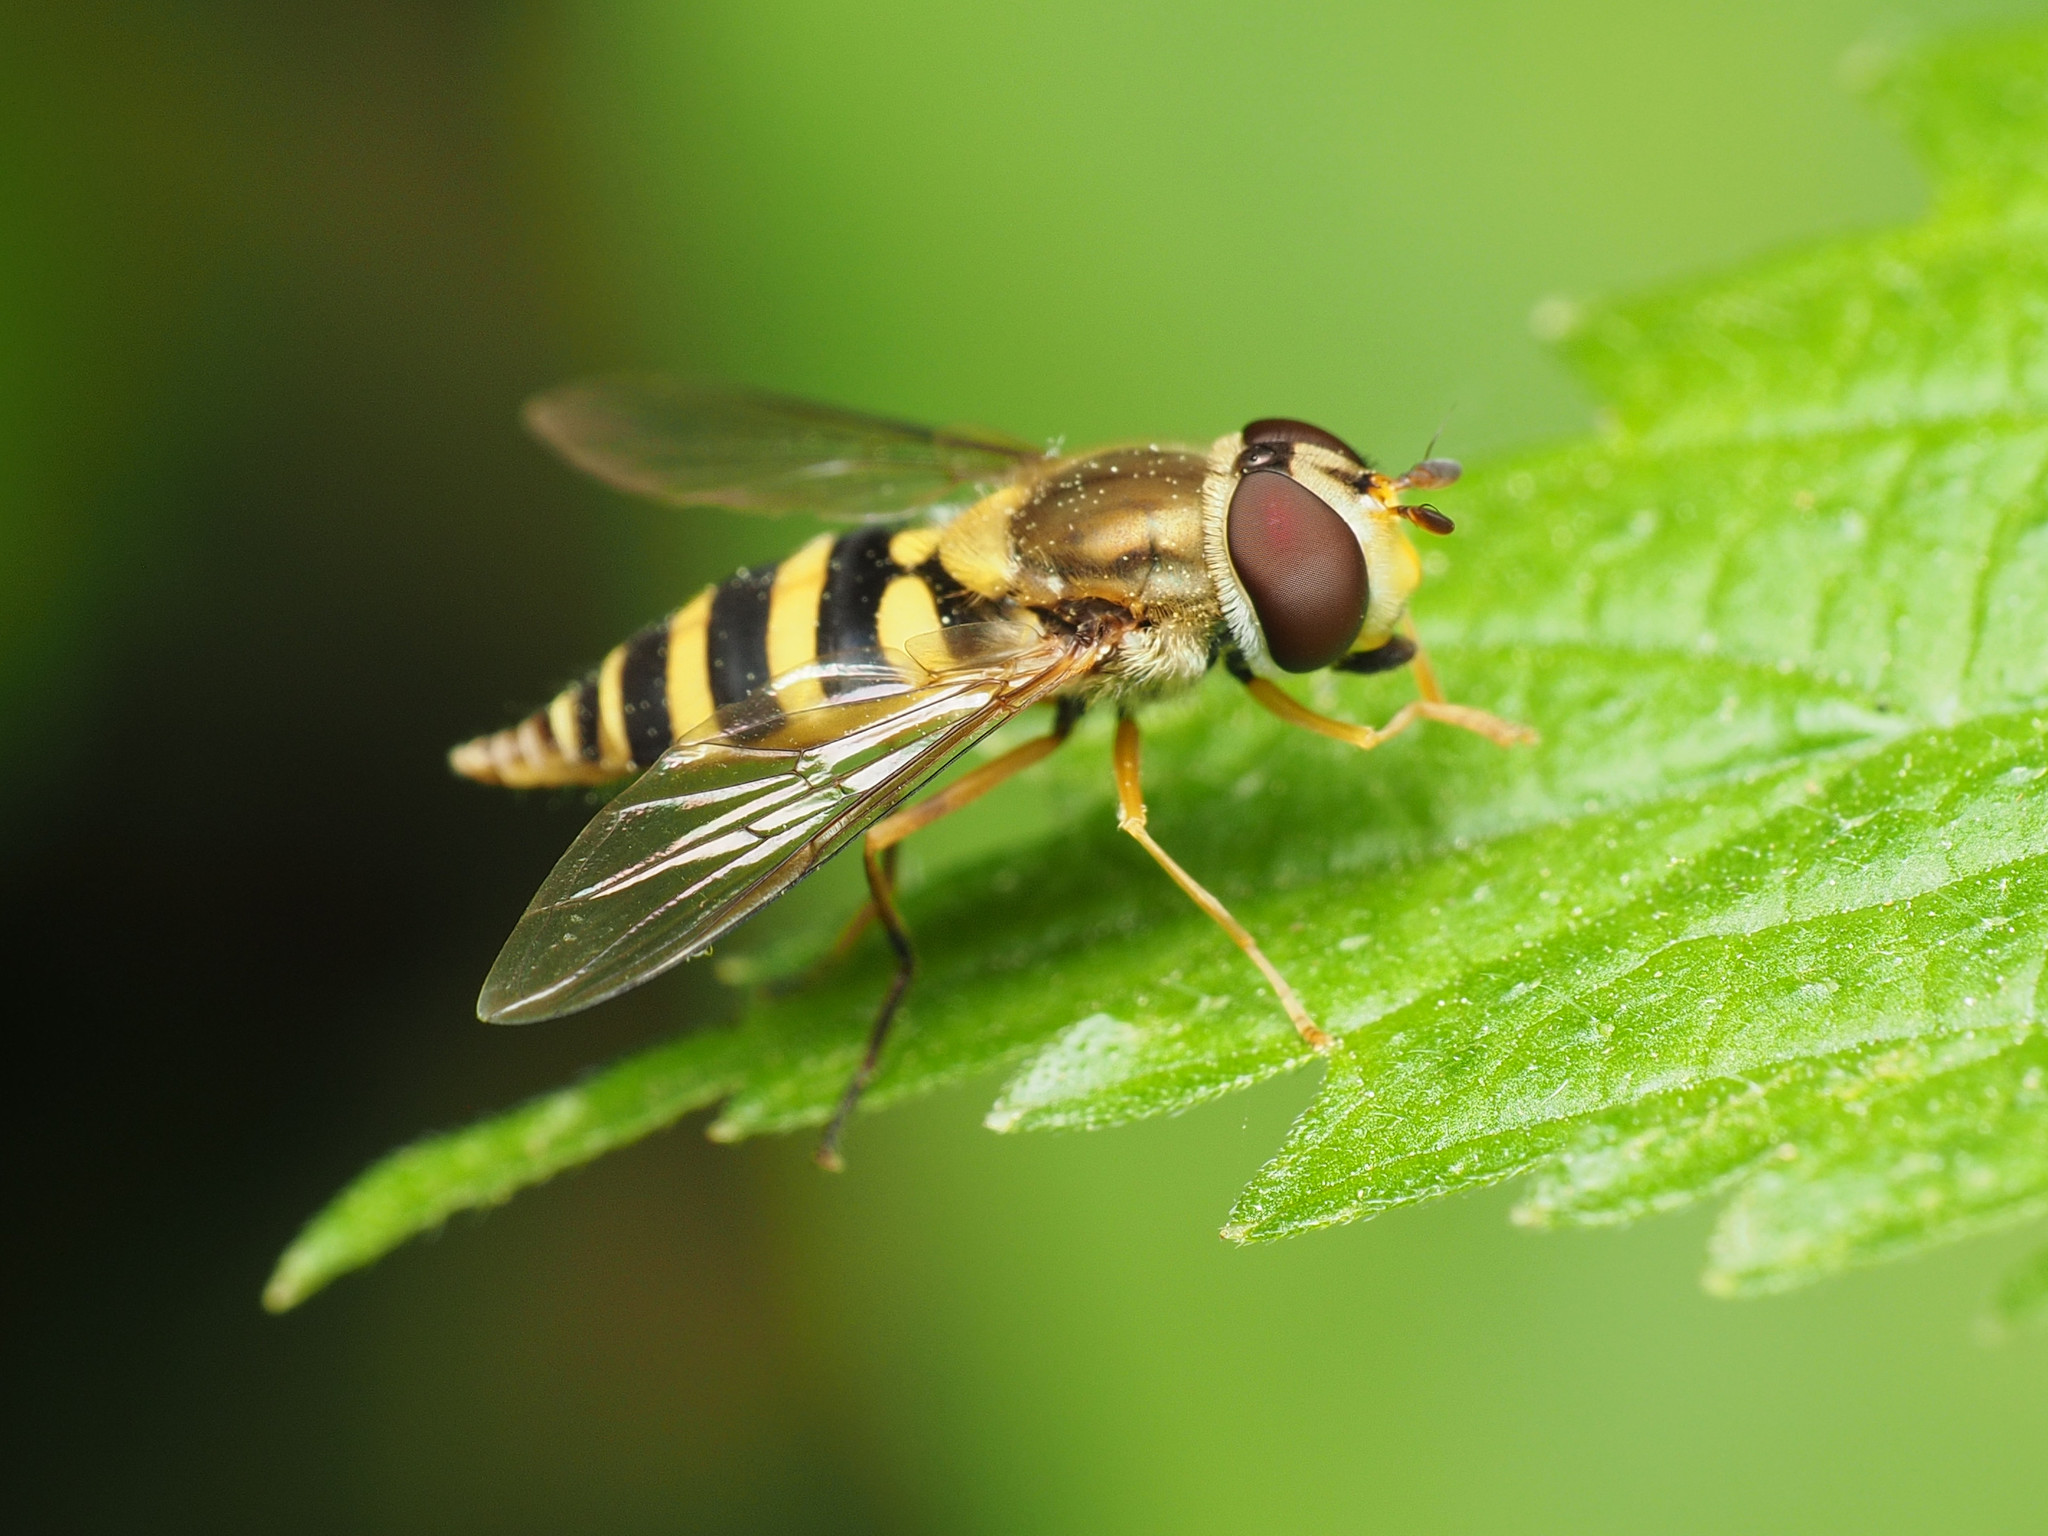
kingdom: Animalia
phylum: Arthropoda
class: Insecta
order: Diptera
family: Syrphidae
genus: Syrphus
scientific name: Syrphus rectus
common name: Yellow-legged flower fly
